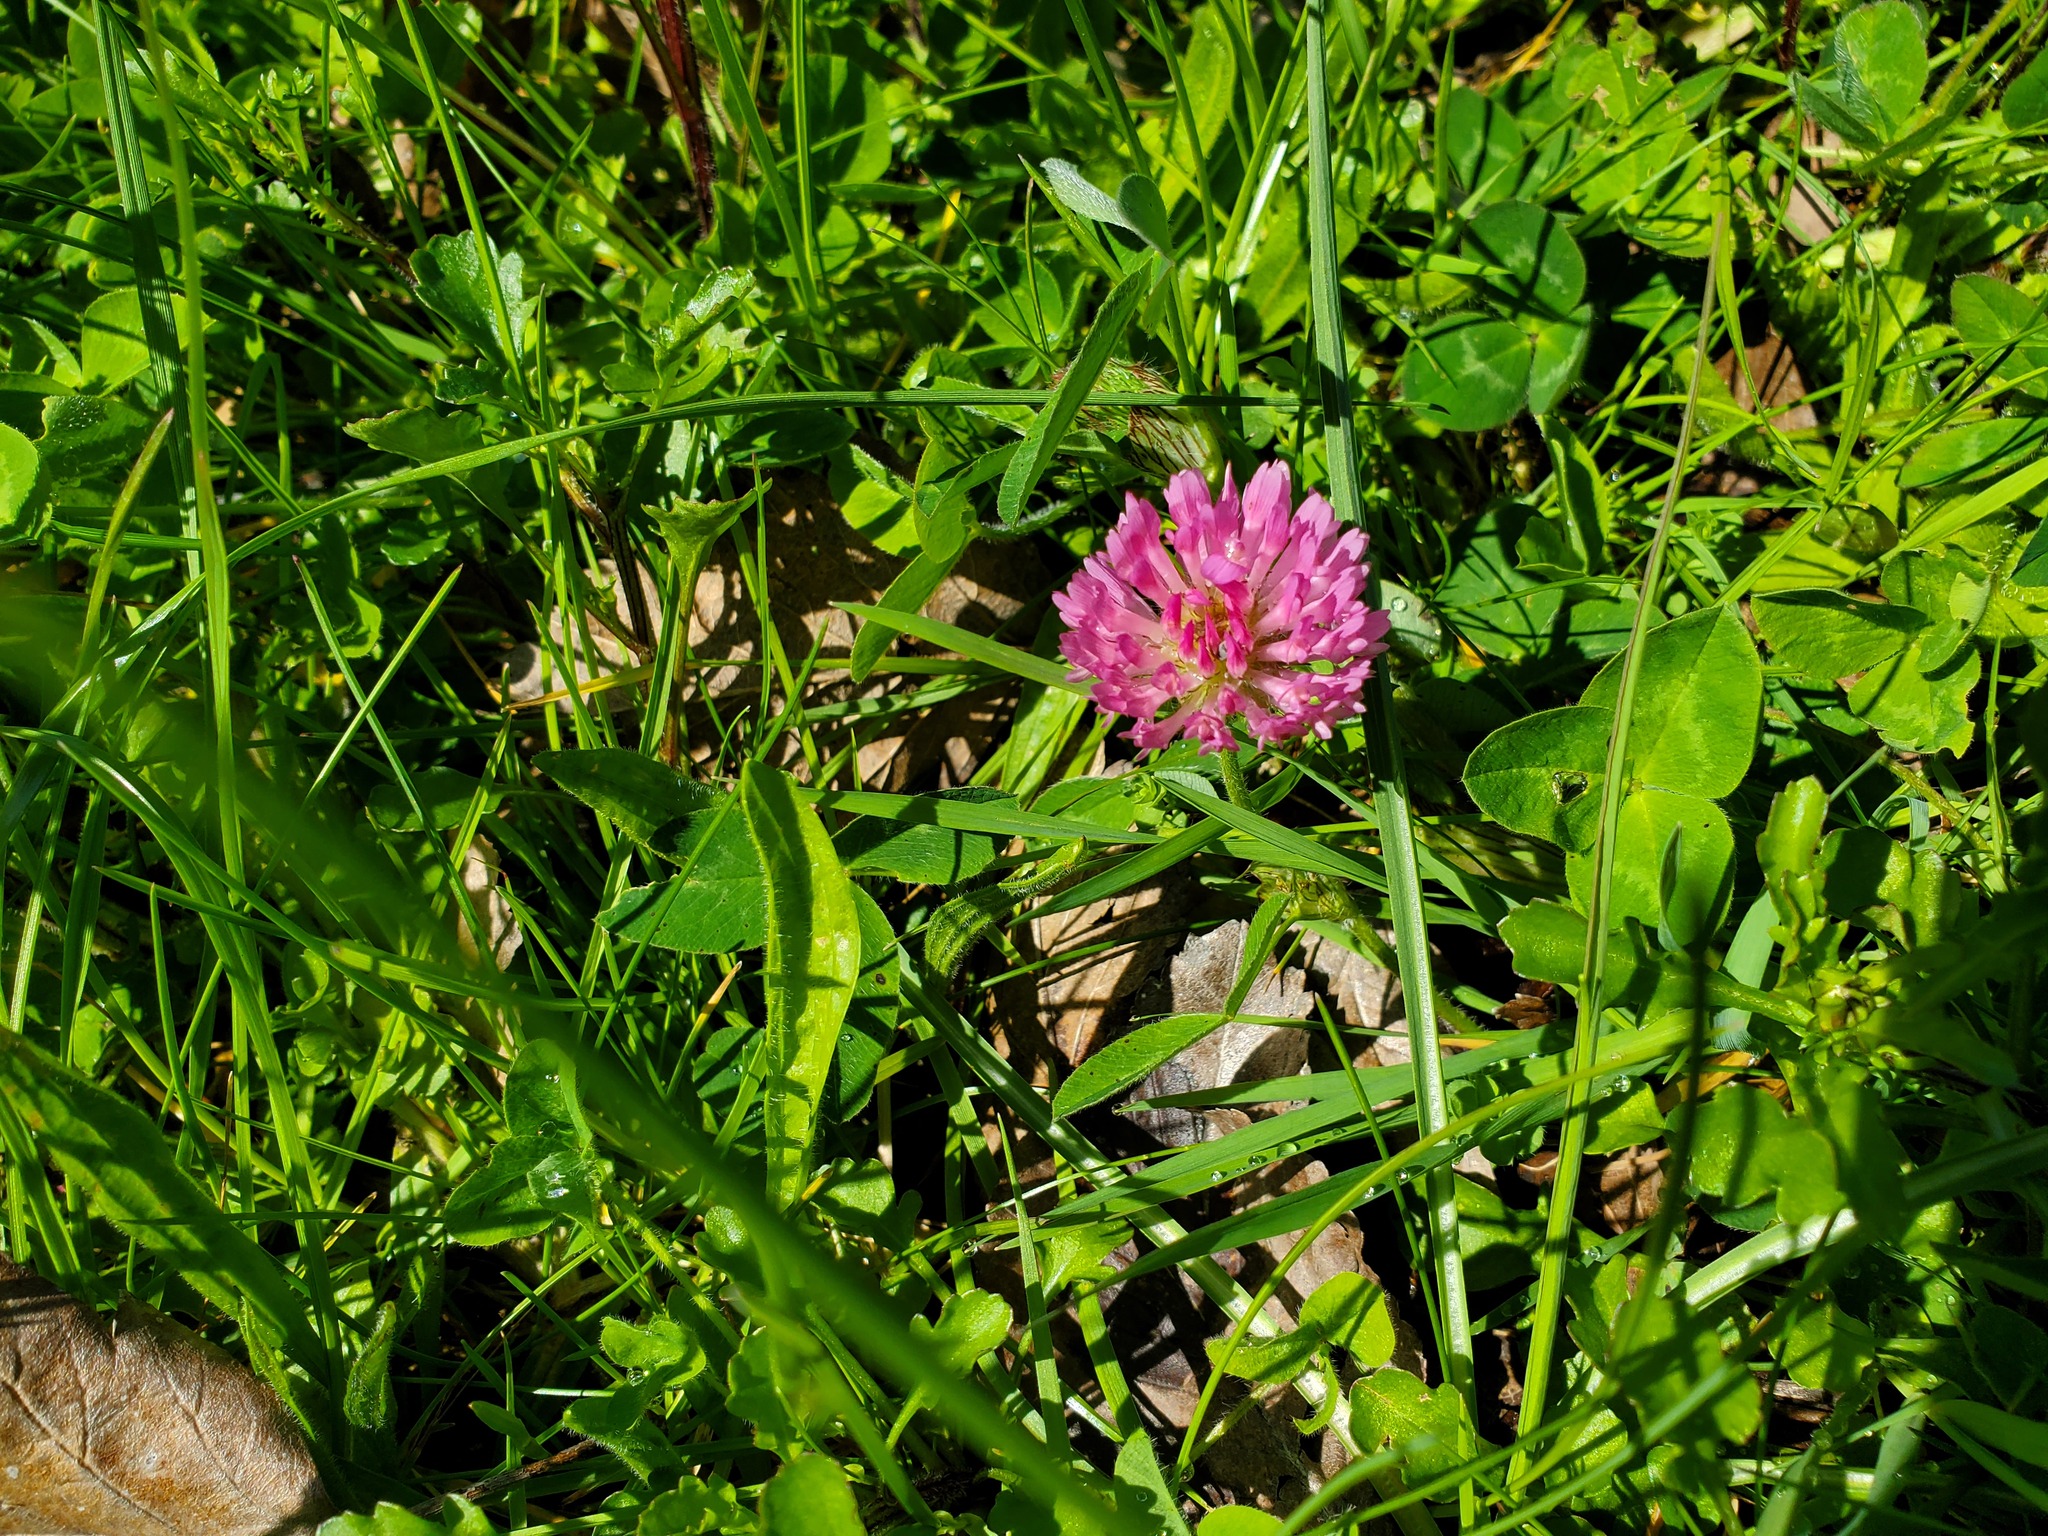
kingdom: Plantae
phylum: Tracheophyta
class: Magnoliopsida
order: Fabales
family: Fabaceae
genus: Trifolium
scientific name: Trifolium pratense
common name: Red clover
